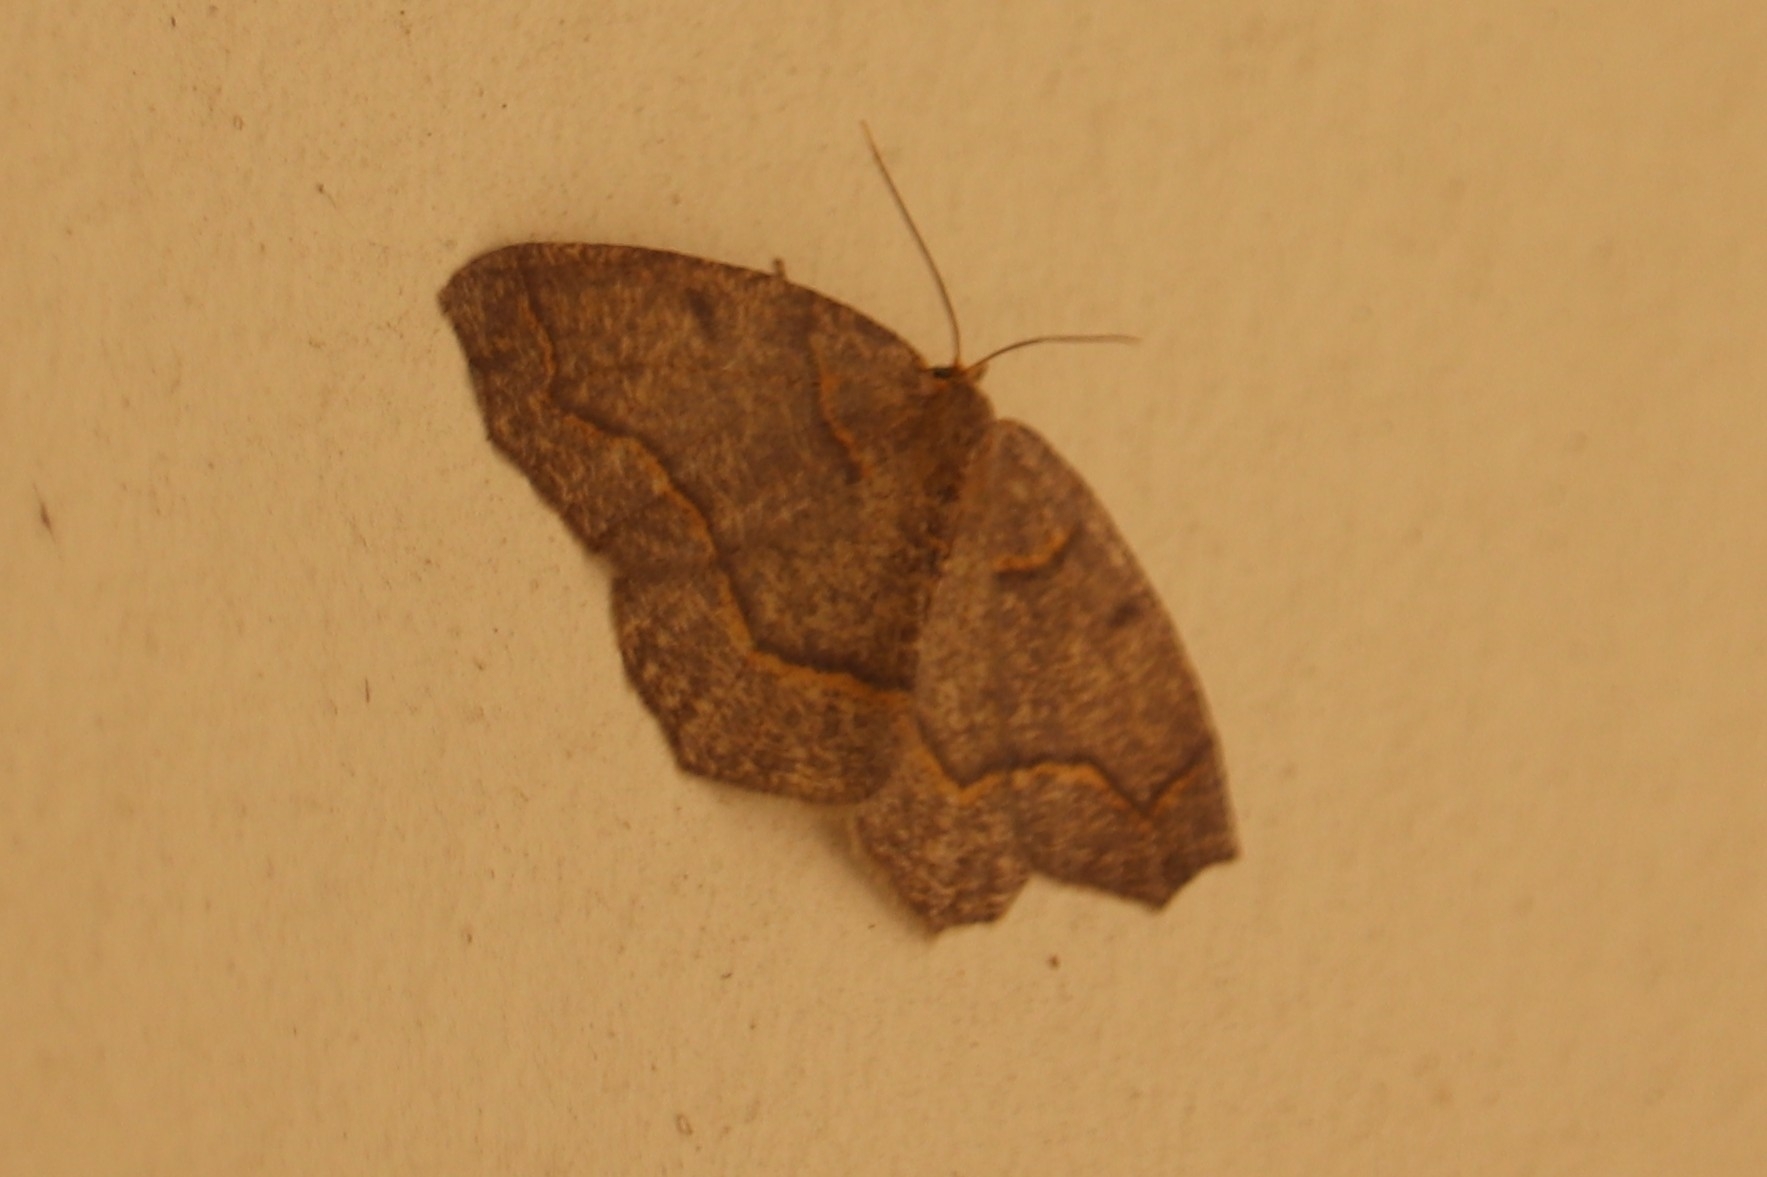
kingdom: Animalia
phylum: Arthropoda
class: Insecta
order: Lepidoptera
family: Geometridae
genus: Lambdina
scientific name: Lambdina fiscellaria
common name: Hemlock looper
